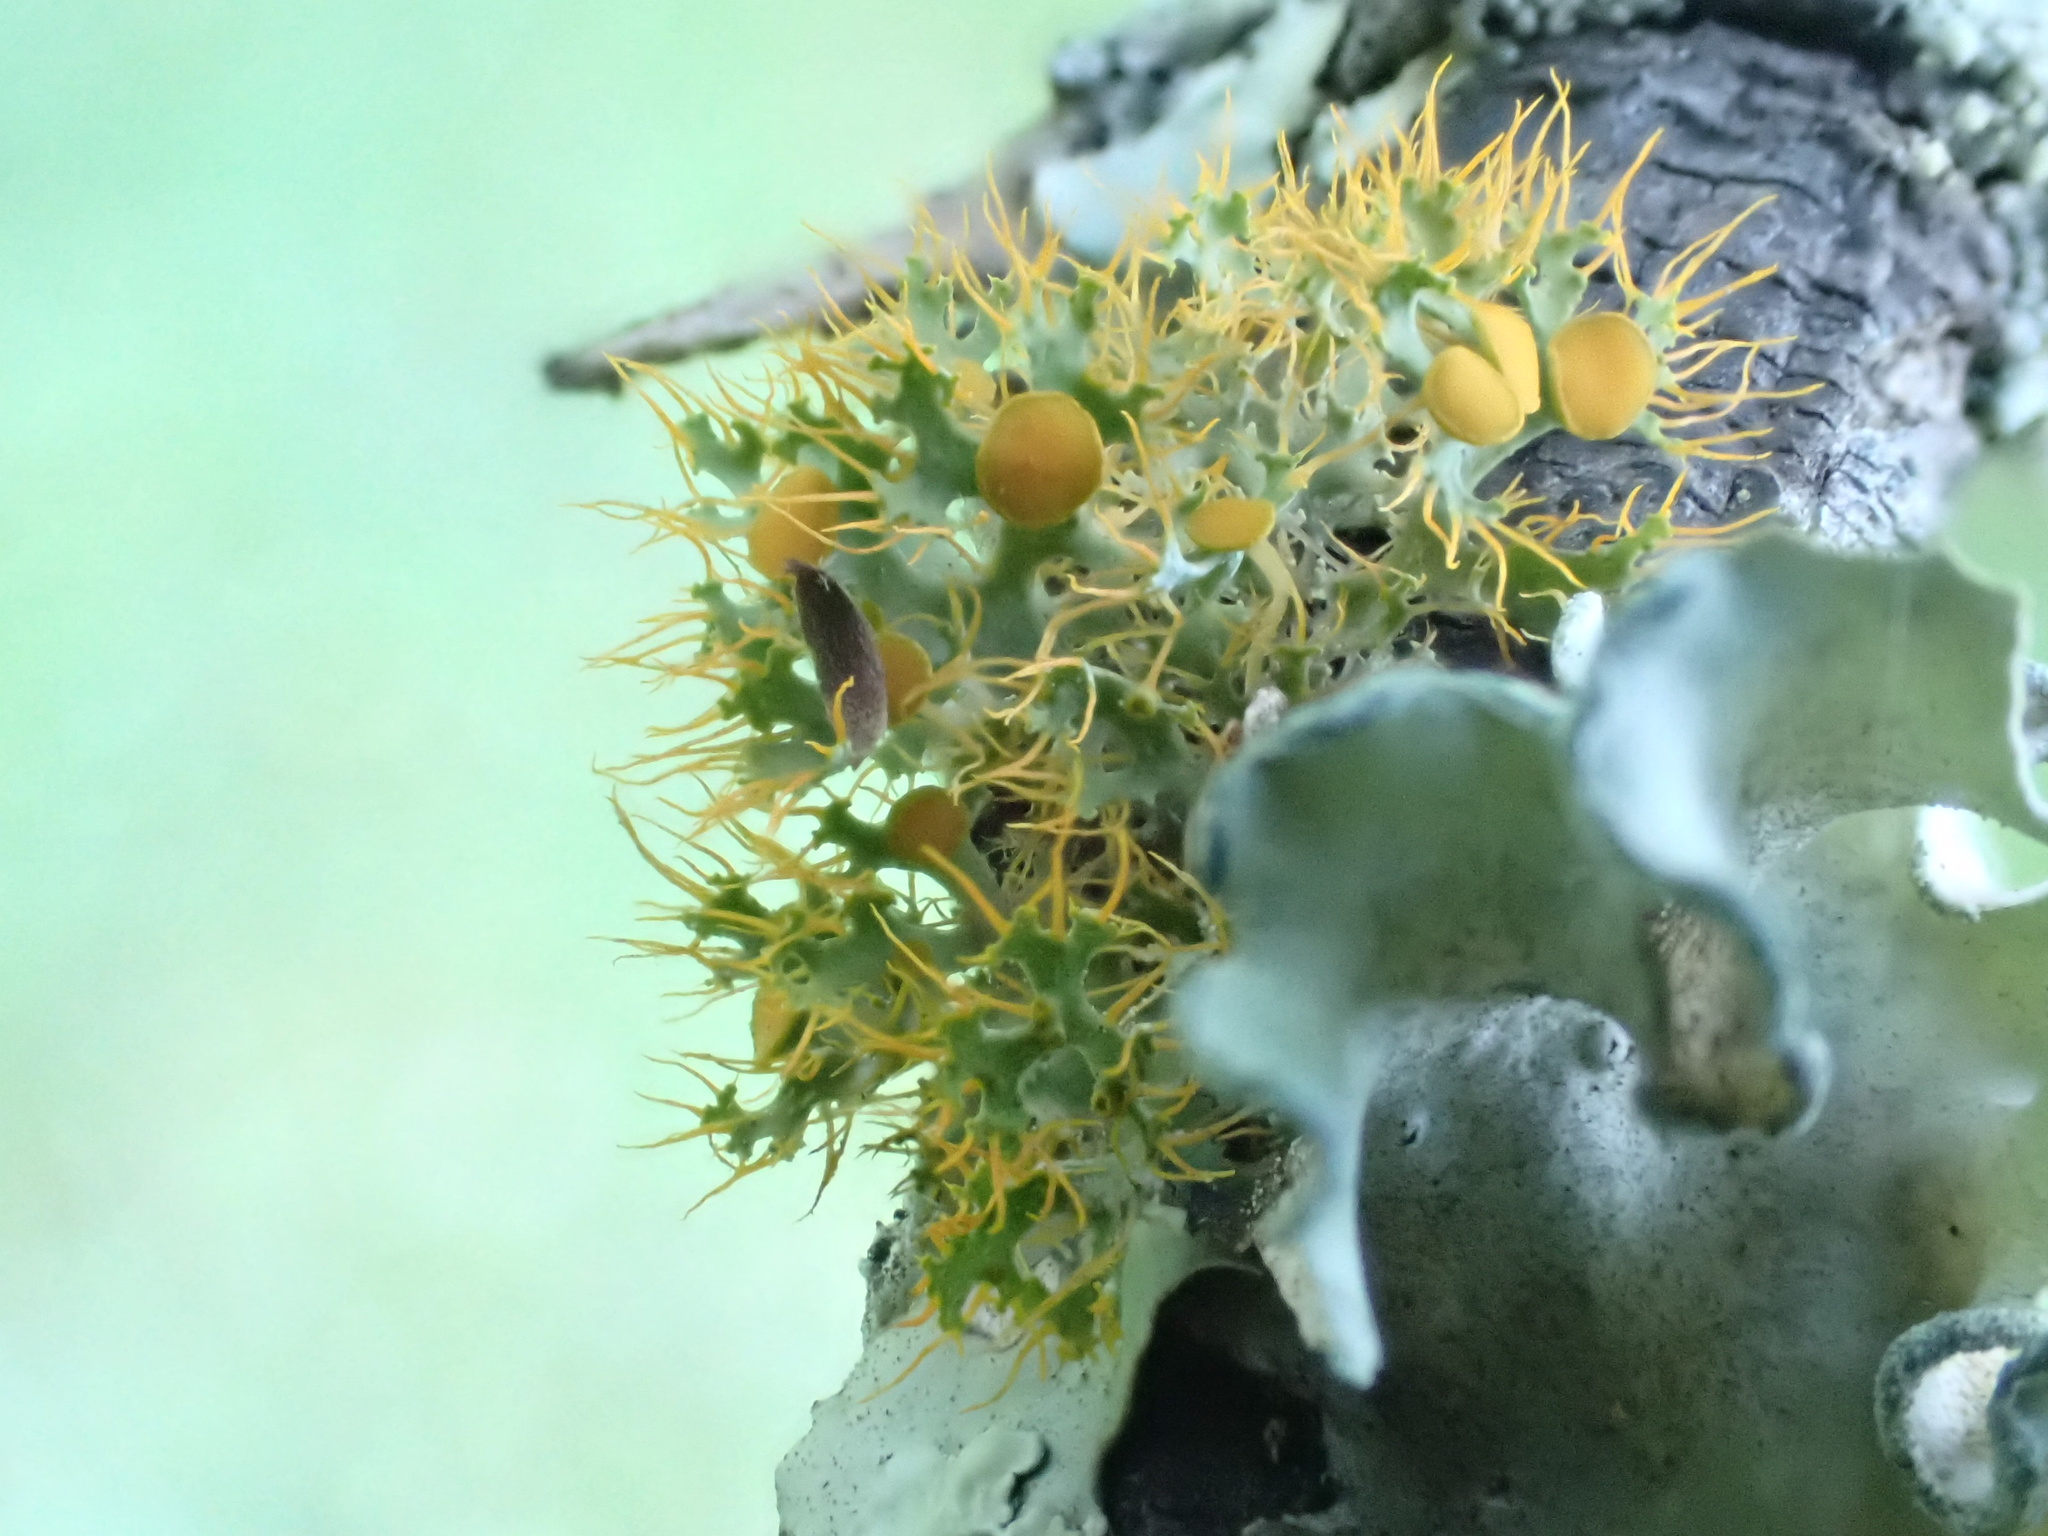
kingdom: Fungi
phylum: Ascomycota
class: Lecanoromycetes
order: Teloschistales
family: Teloschistaceae
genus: Teloschistes
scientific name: Teloschistes pulvinaris
